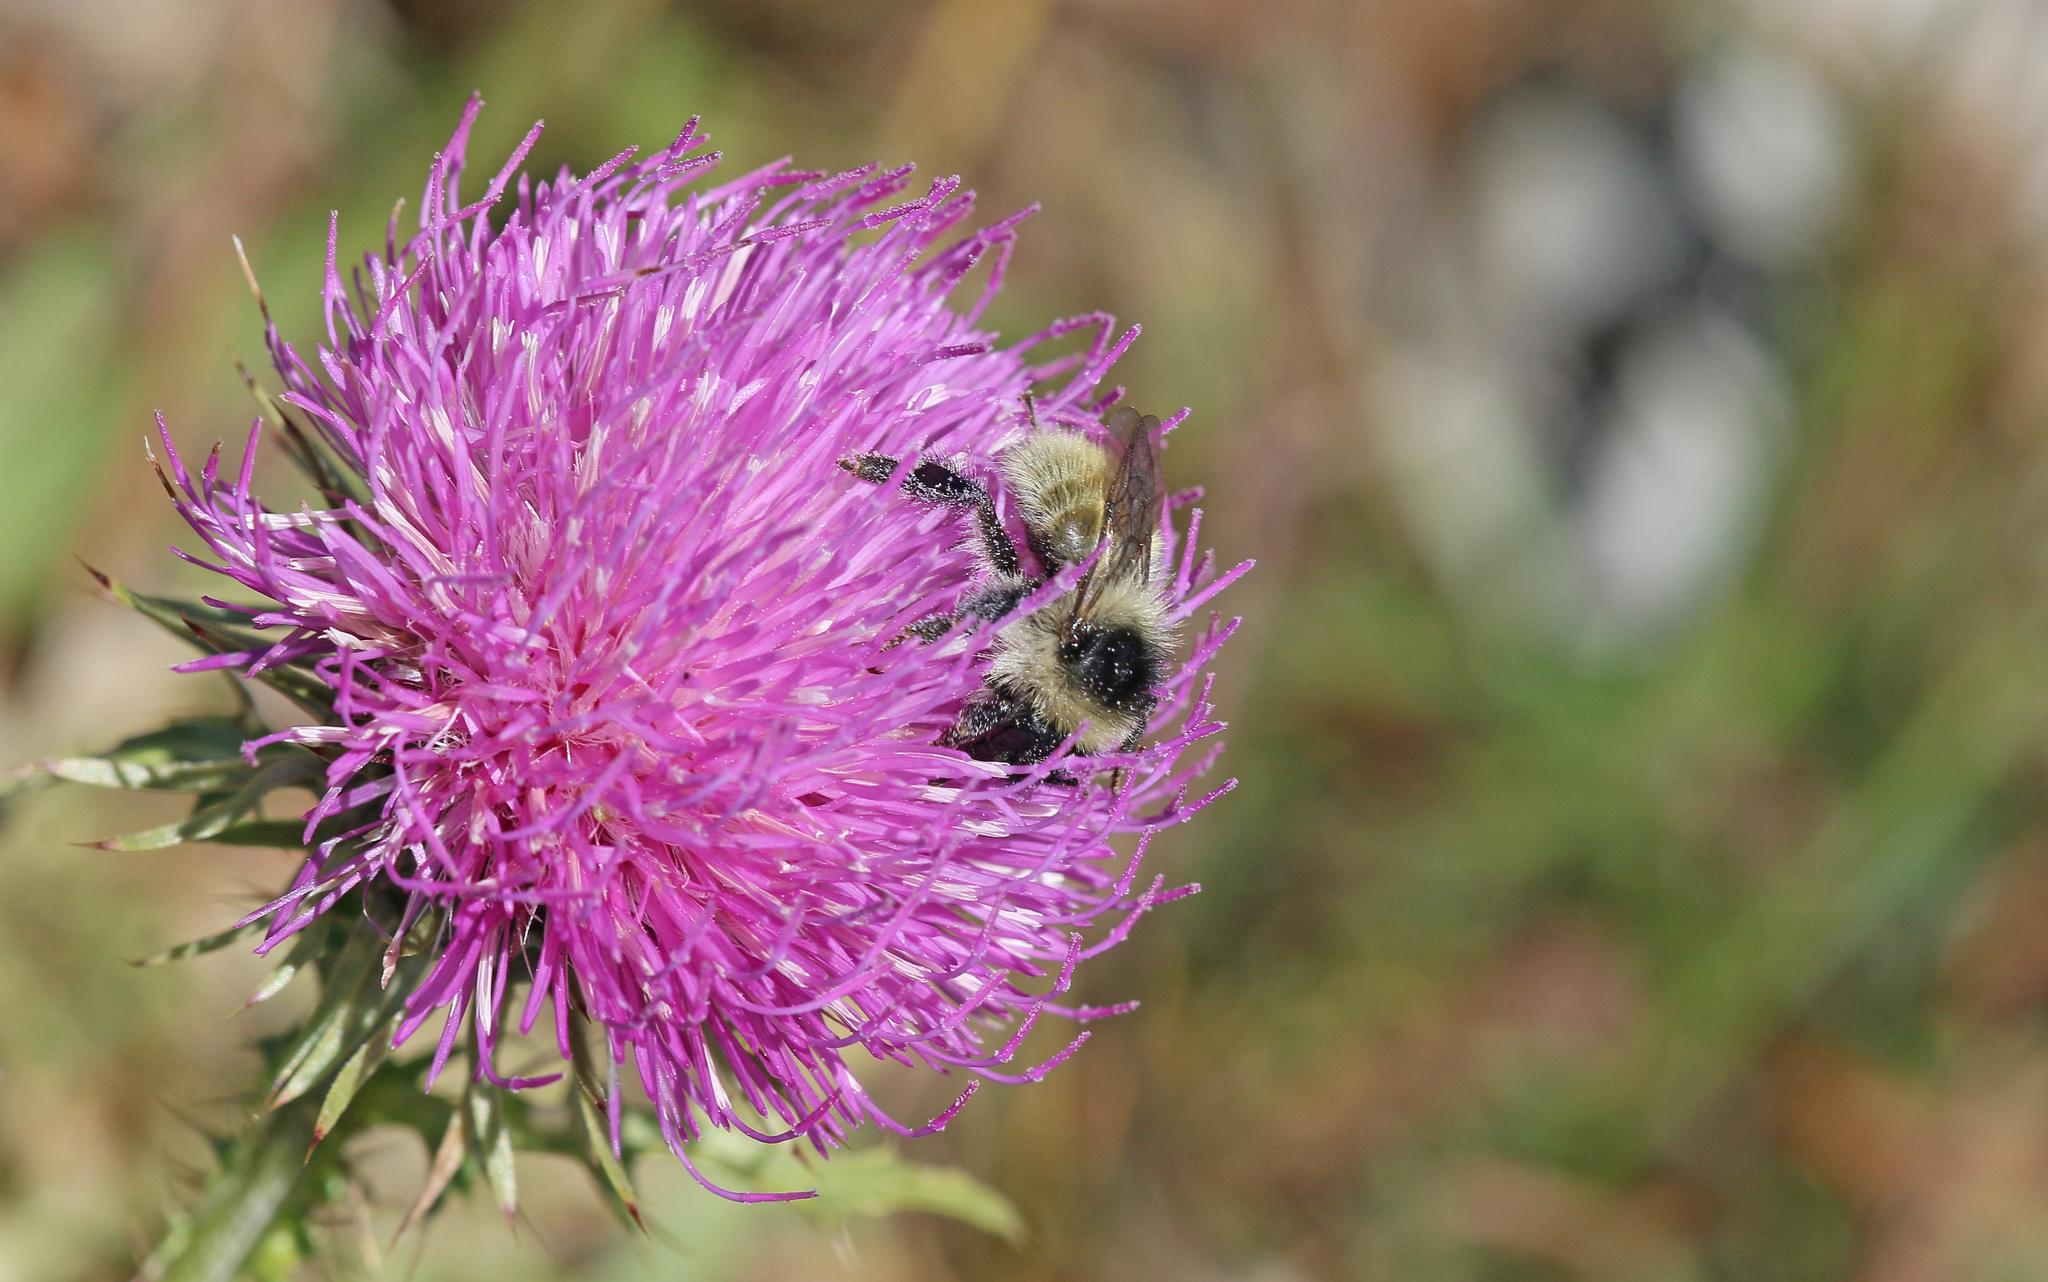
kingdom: Animalia
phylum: Arthropoda
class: Insecta
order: Hymenoptera
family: Apidae
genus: Bombus
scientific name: Bombus mesomelas
